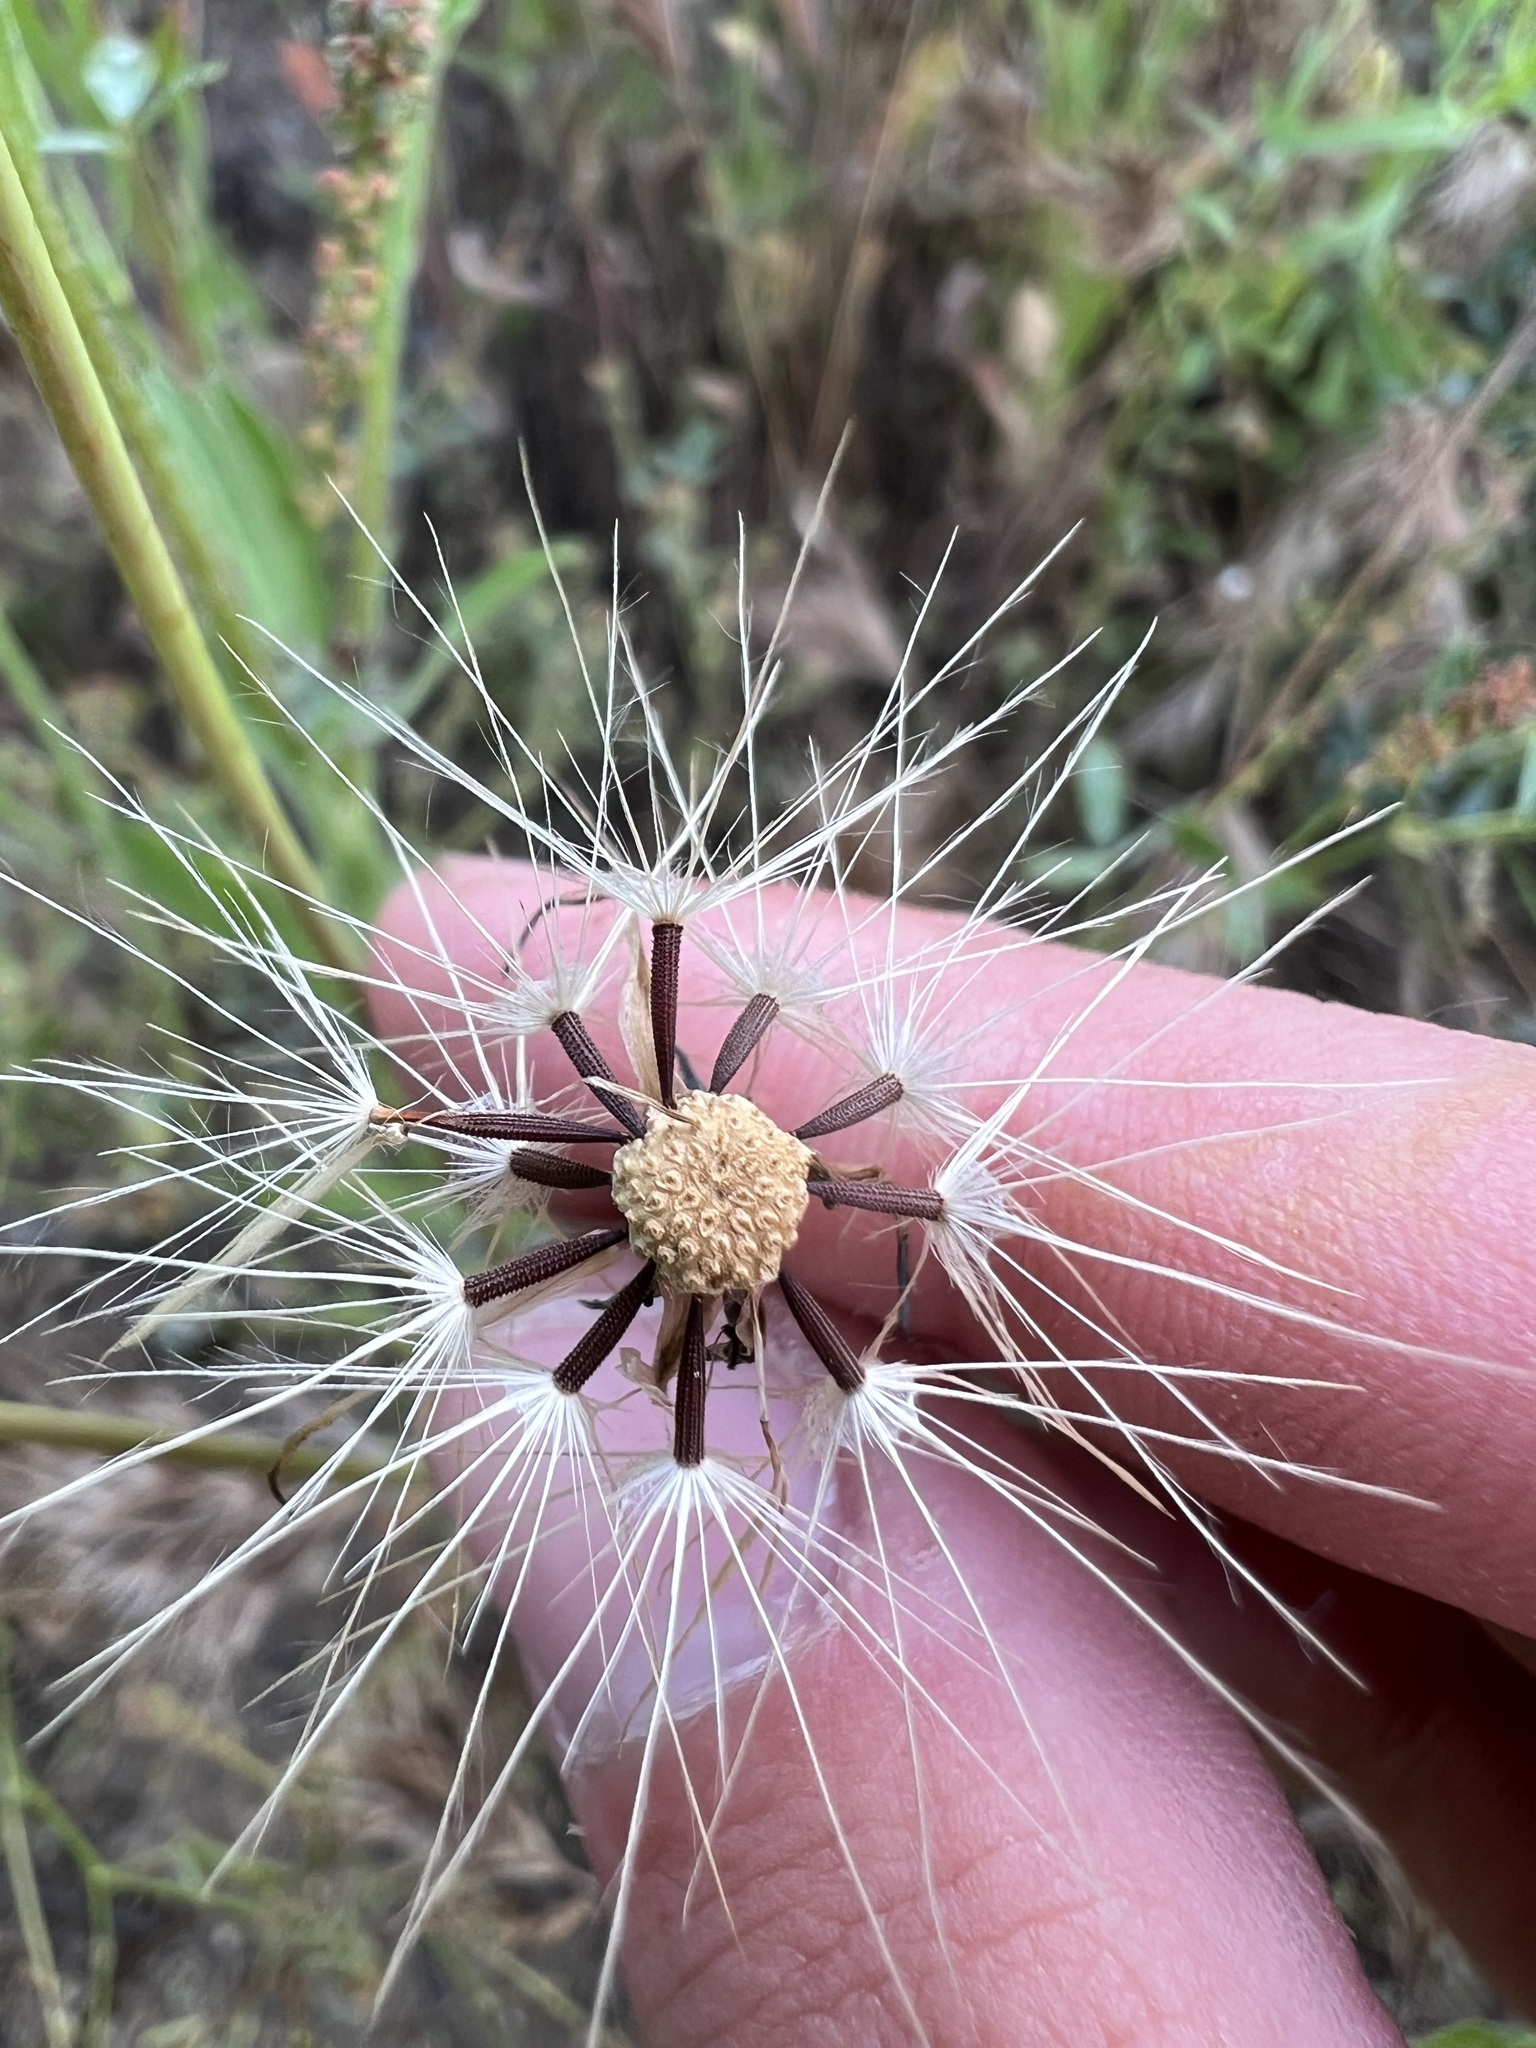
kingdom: Plantae
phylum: Tracheophyta
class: Magnoliopsida
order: Asterales
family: Asteraceae
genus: Hypochaeris
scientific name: Hypochaeris glabra
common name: Smooth catsear
